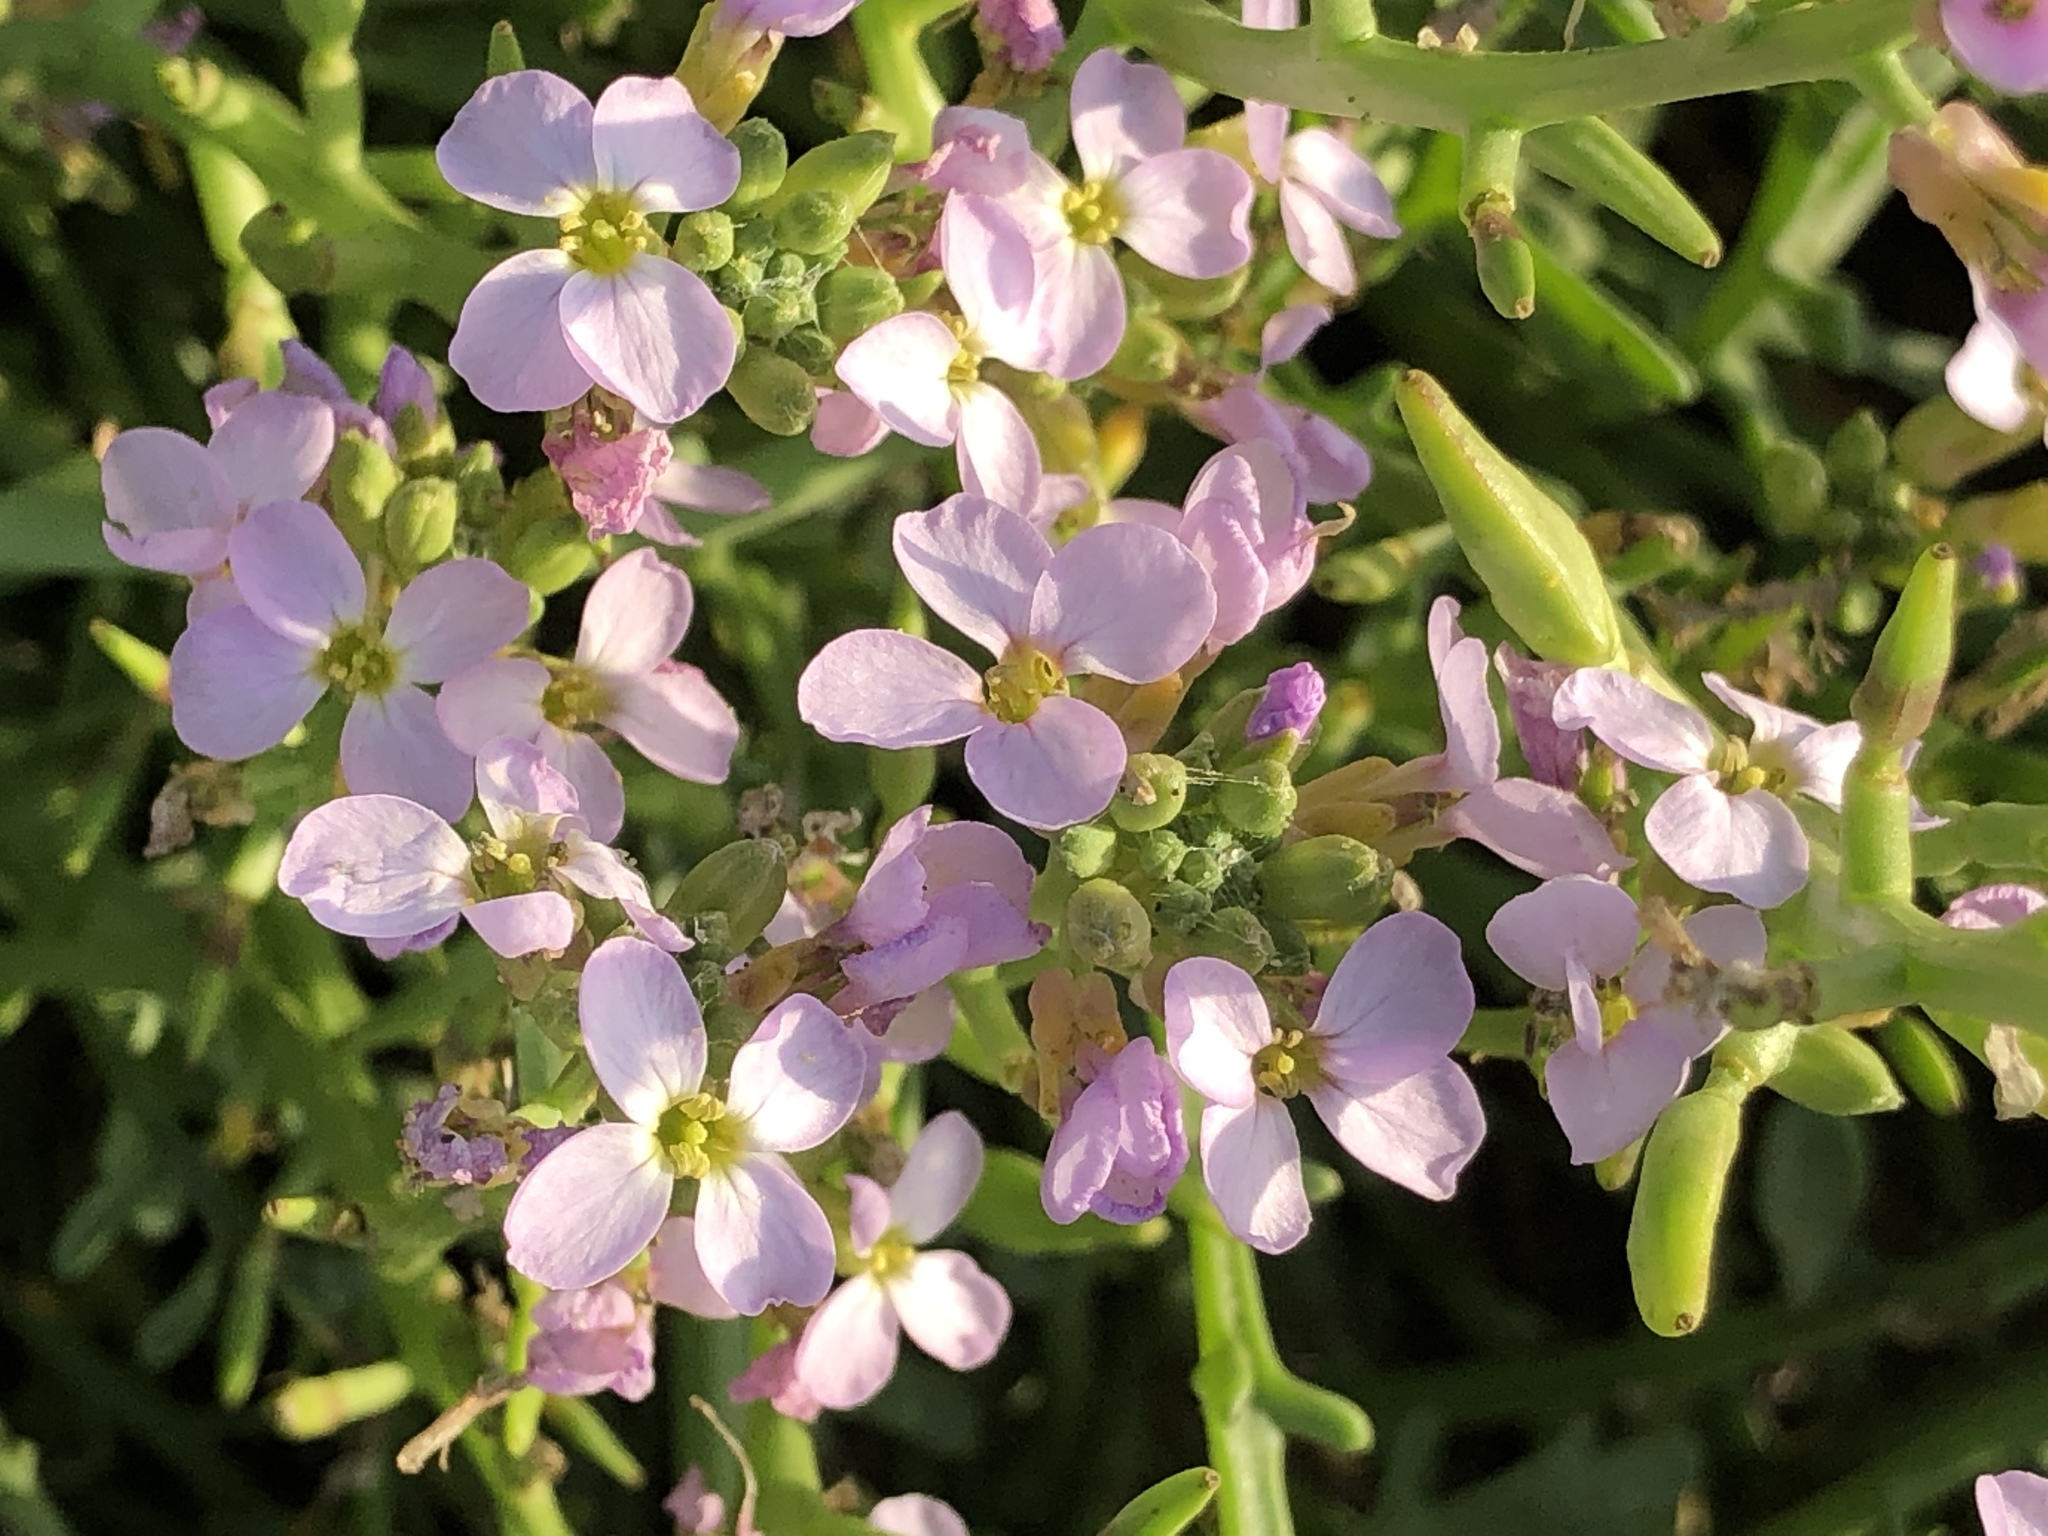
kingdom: Plantae
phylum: Tracheophyta
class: Magnoliopsida
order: Brassicales
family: Brassicaceae
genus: Cakile
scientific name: Cakile maritima
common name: Sea rocket
